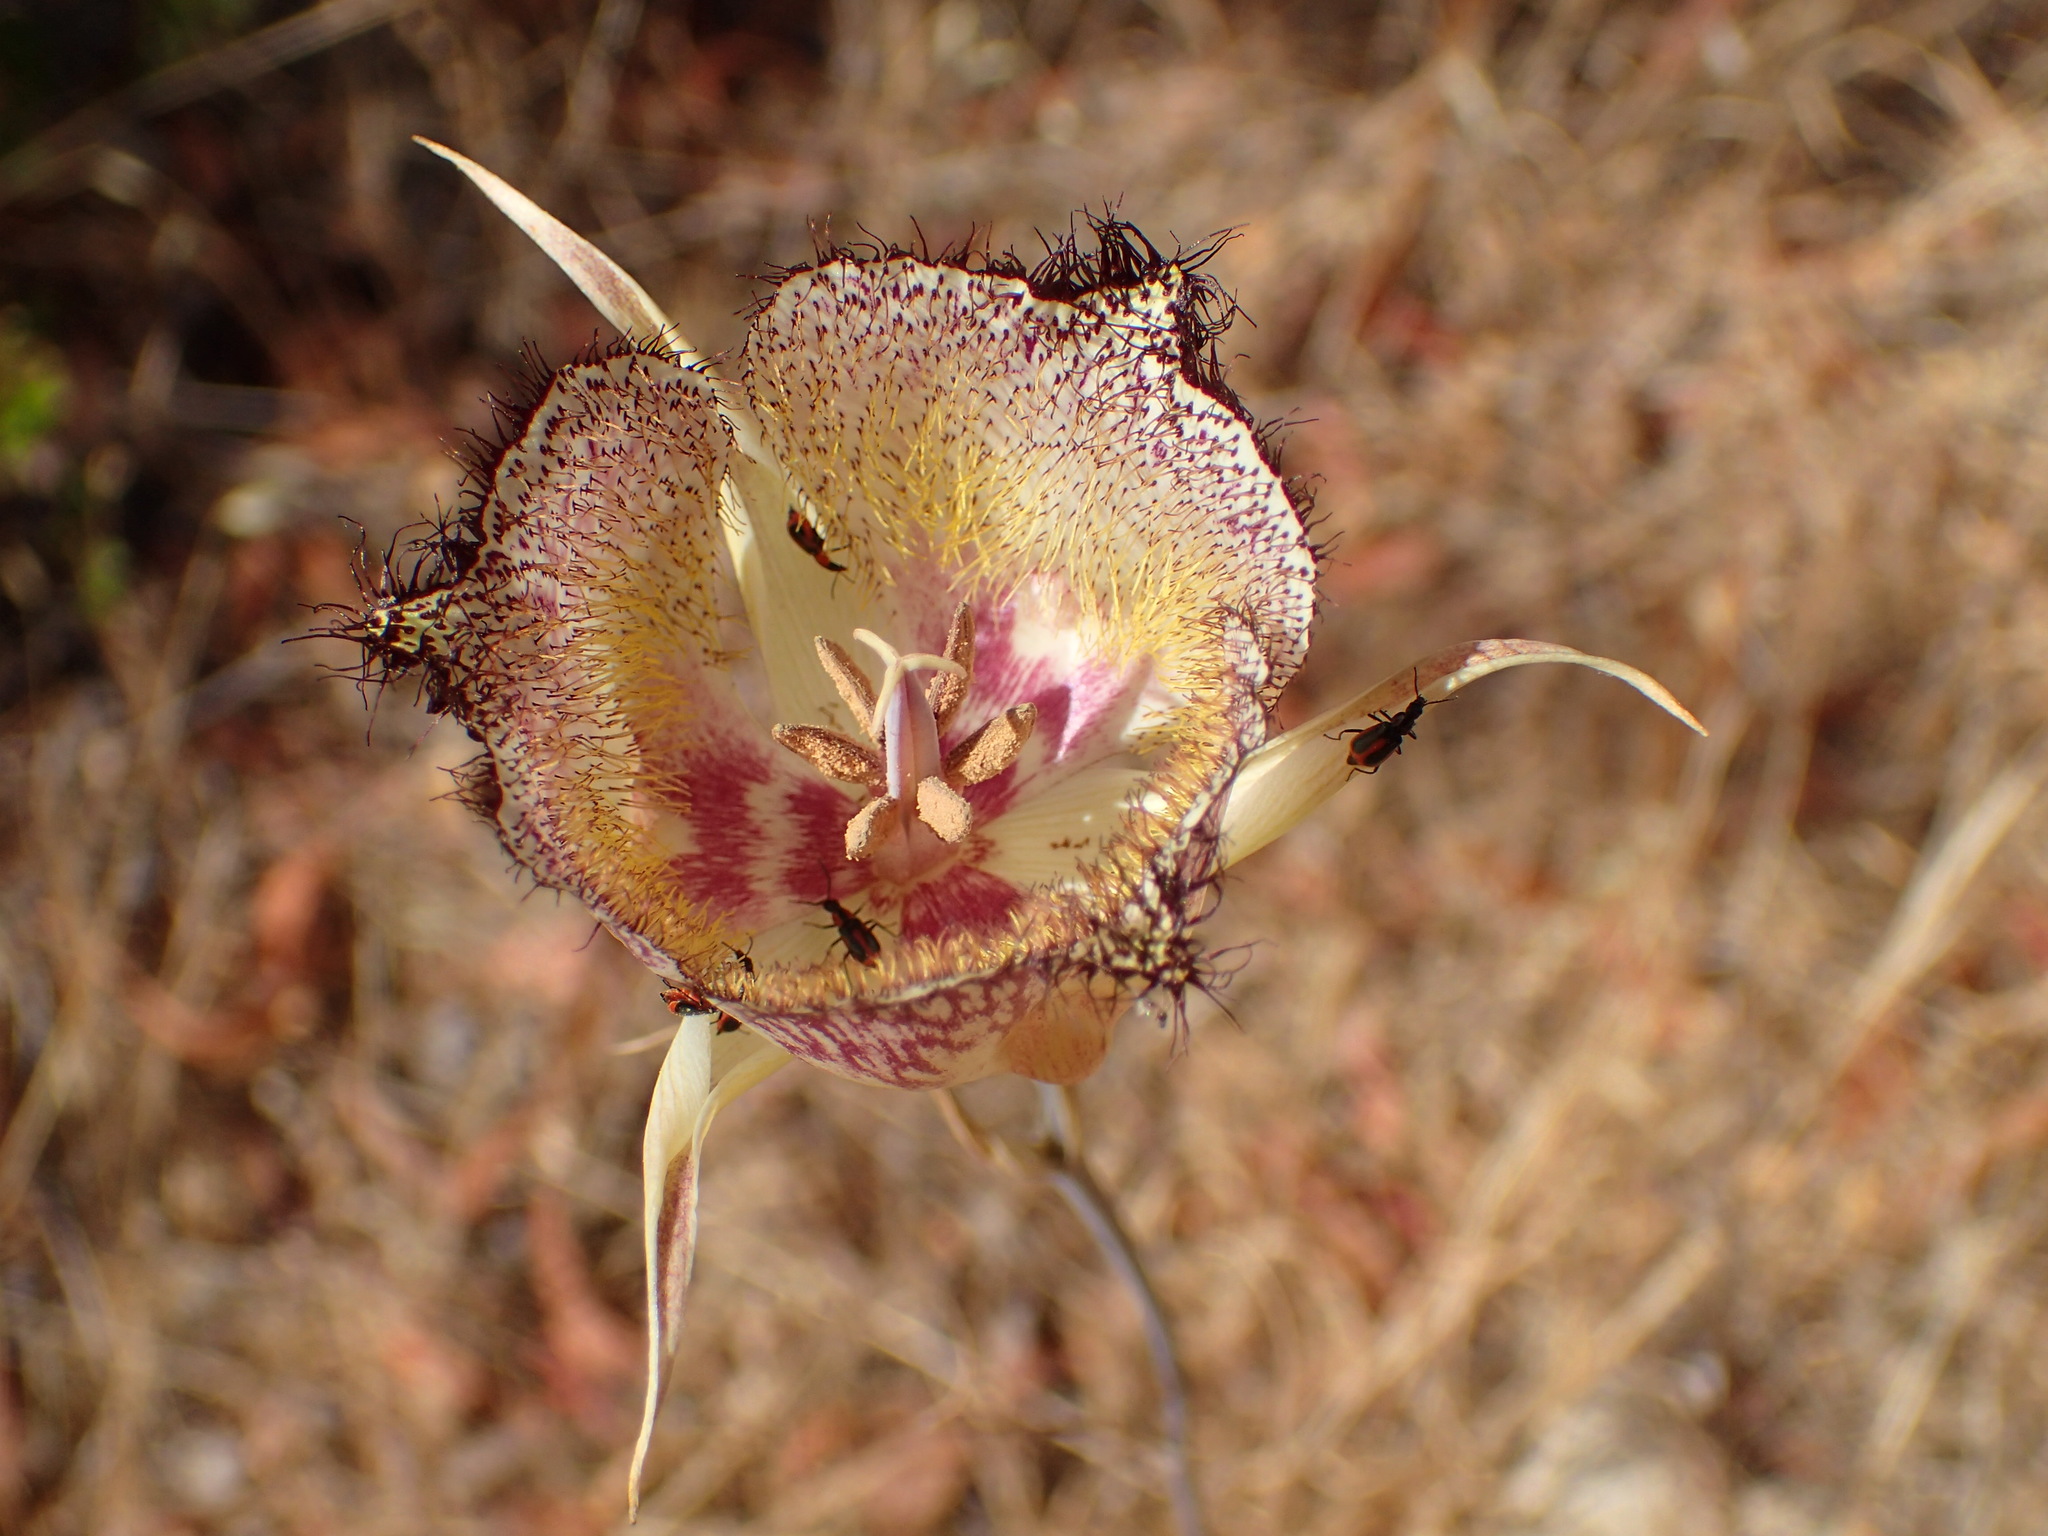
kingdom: Plantae
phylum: Tracheophyta
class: Liliopsida
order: Liliales
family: Liliaceae
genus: Calochortus
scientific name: Calochortus fimbriatus
